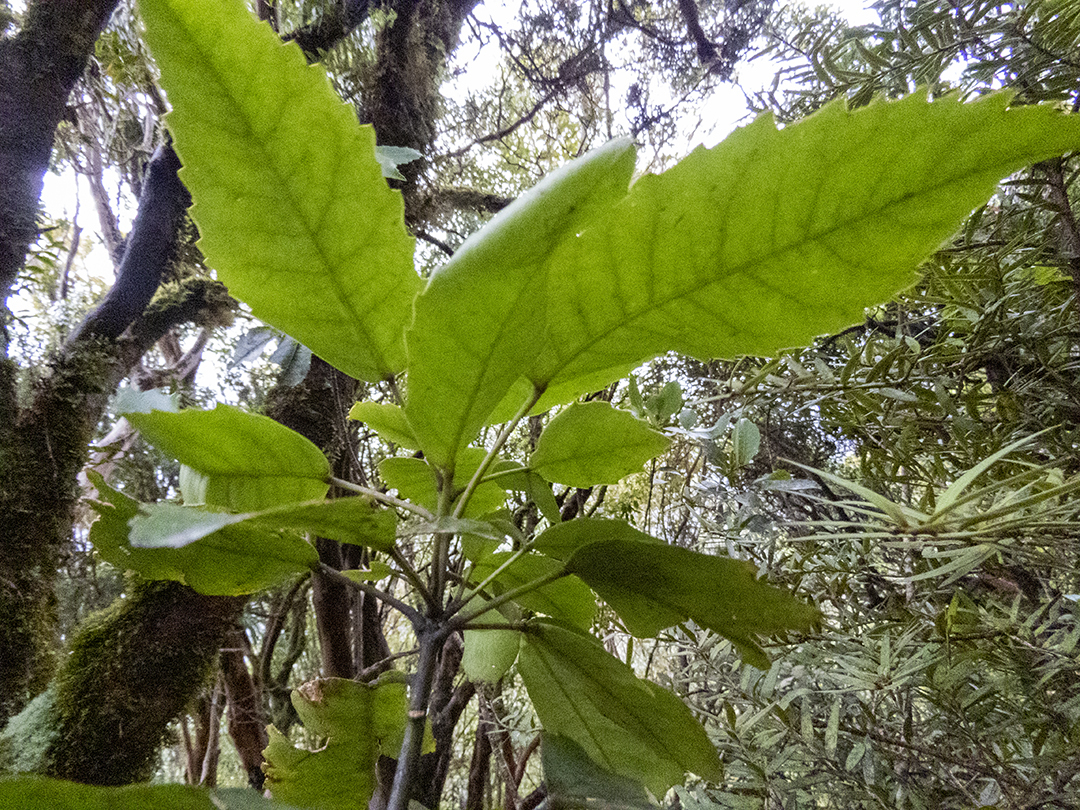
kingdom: Plantae
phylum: Tracheophyta
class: Magnoliopsida
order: Apiales
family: Araliaceae
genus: Raukaua
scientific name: Raukaua simplex
